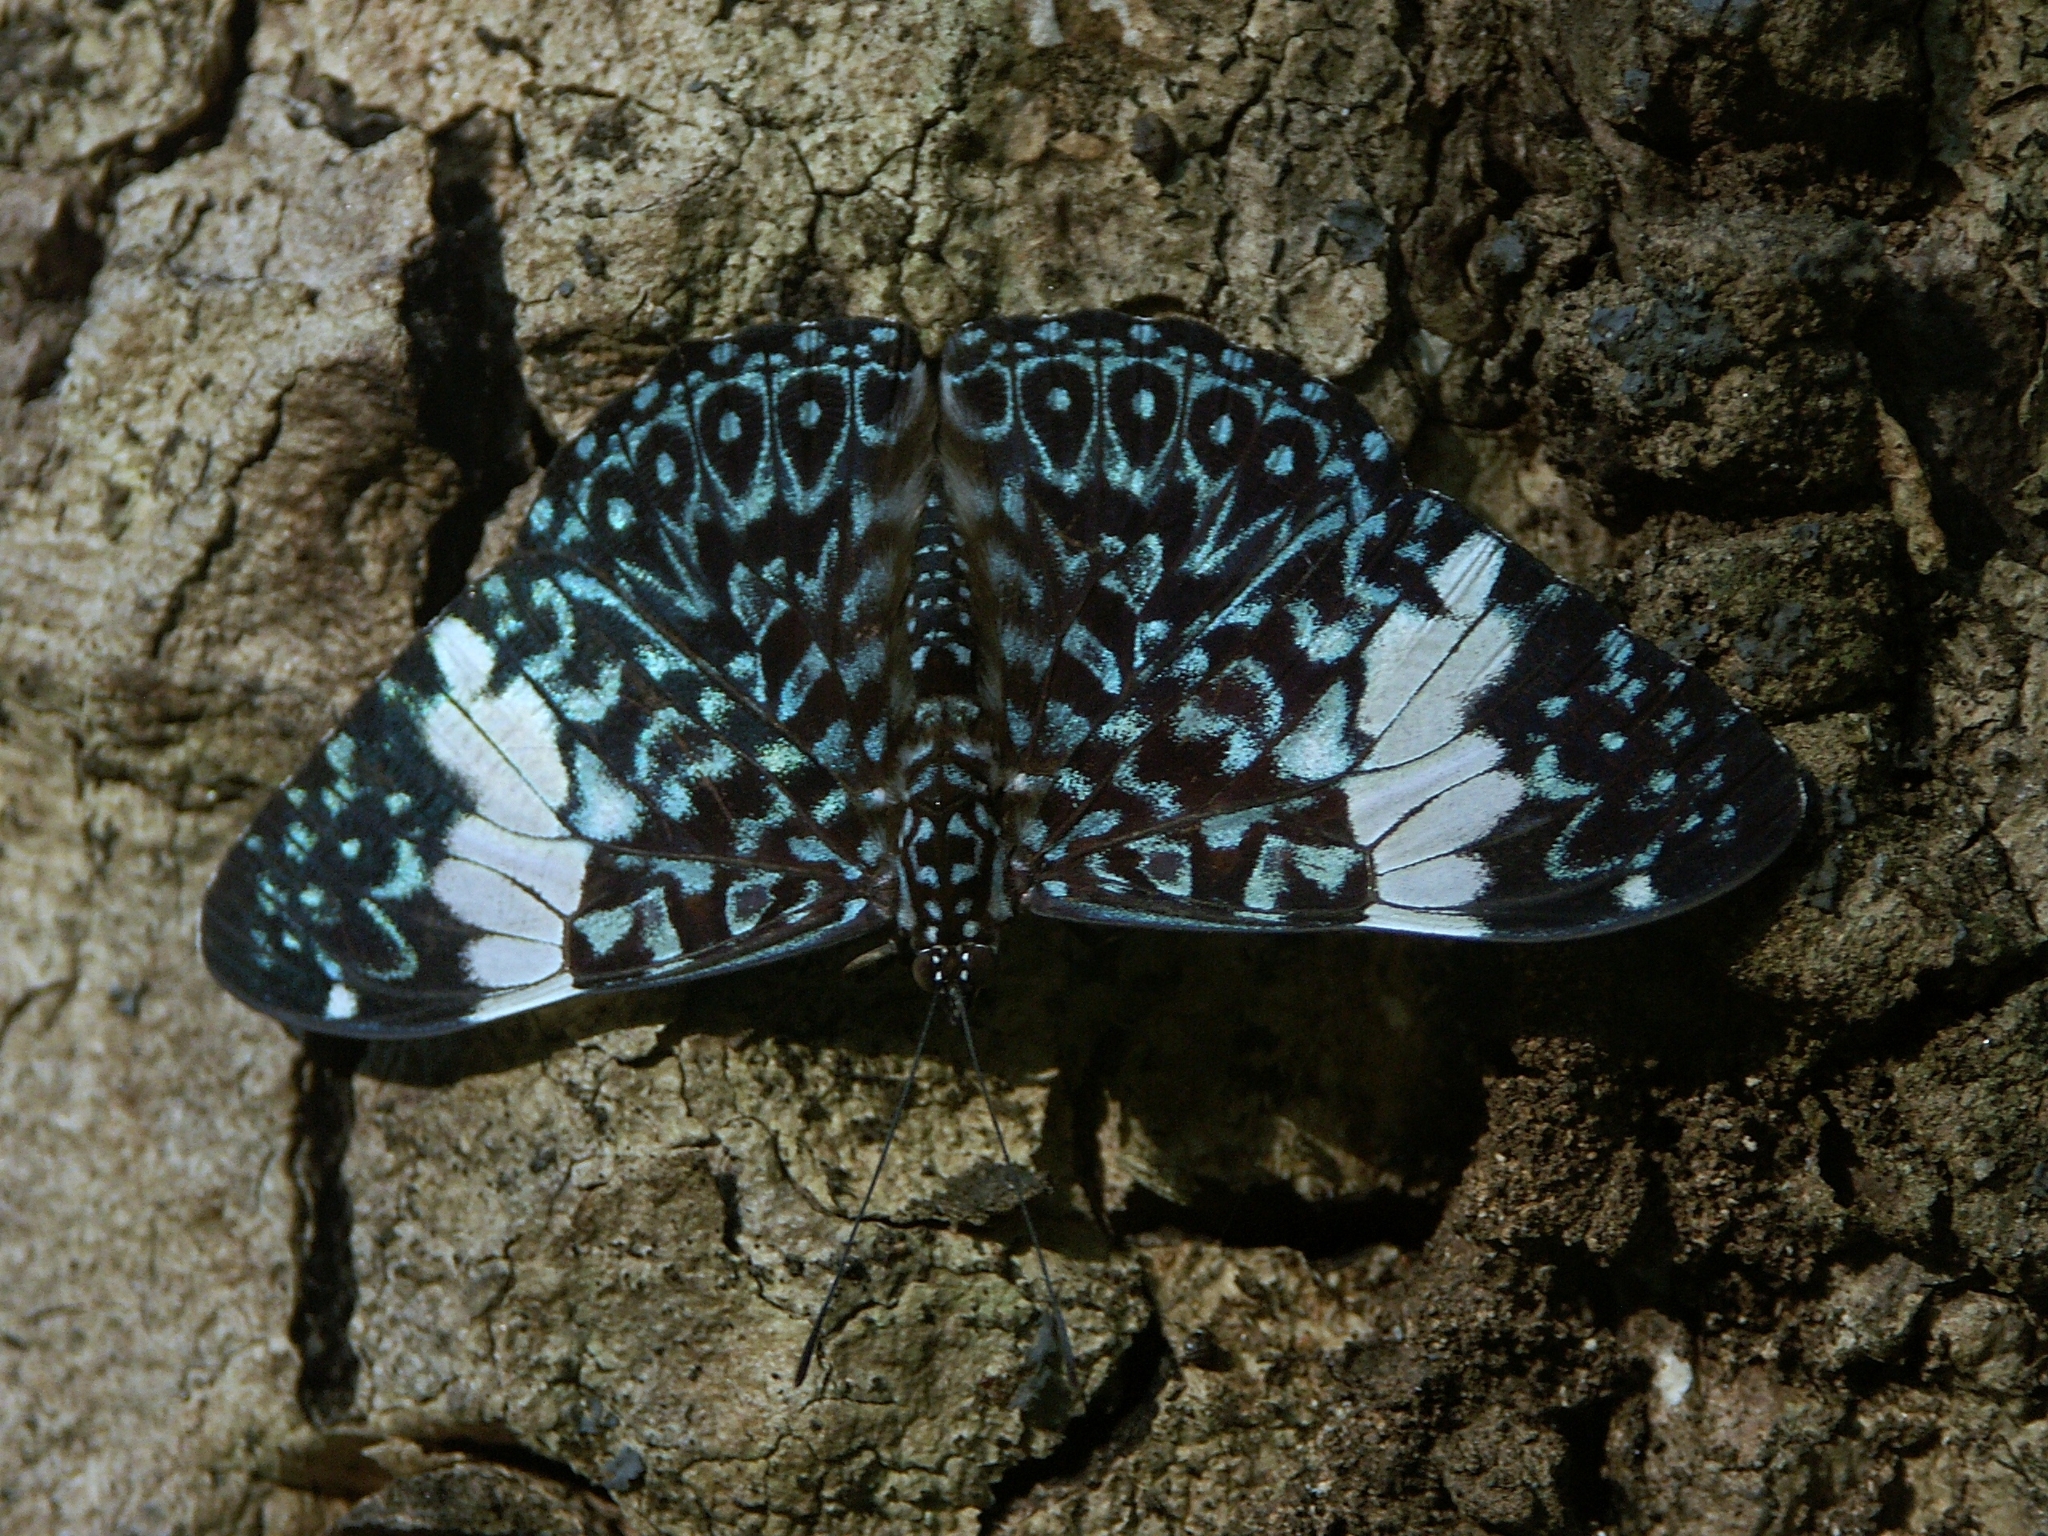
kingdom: Animalia
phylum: Arthropoda
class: Insecta
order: Lepidoptera
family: Nymphalidae
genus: Hamadryas
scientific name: Hamadryas amphinome
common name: Red cracker
